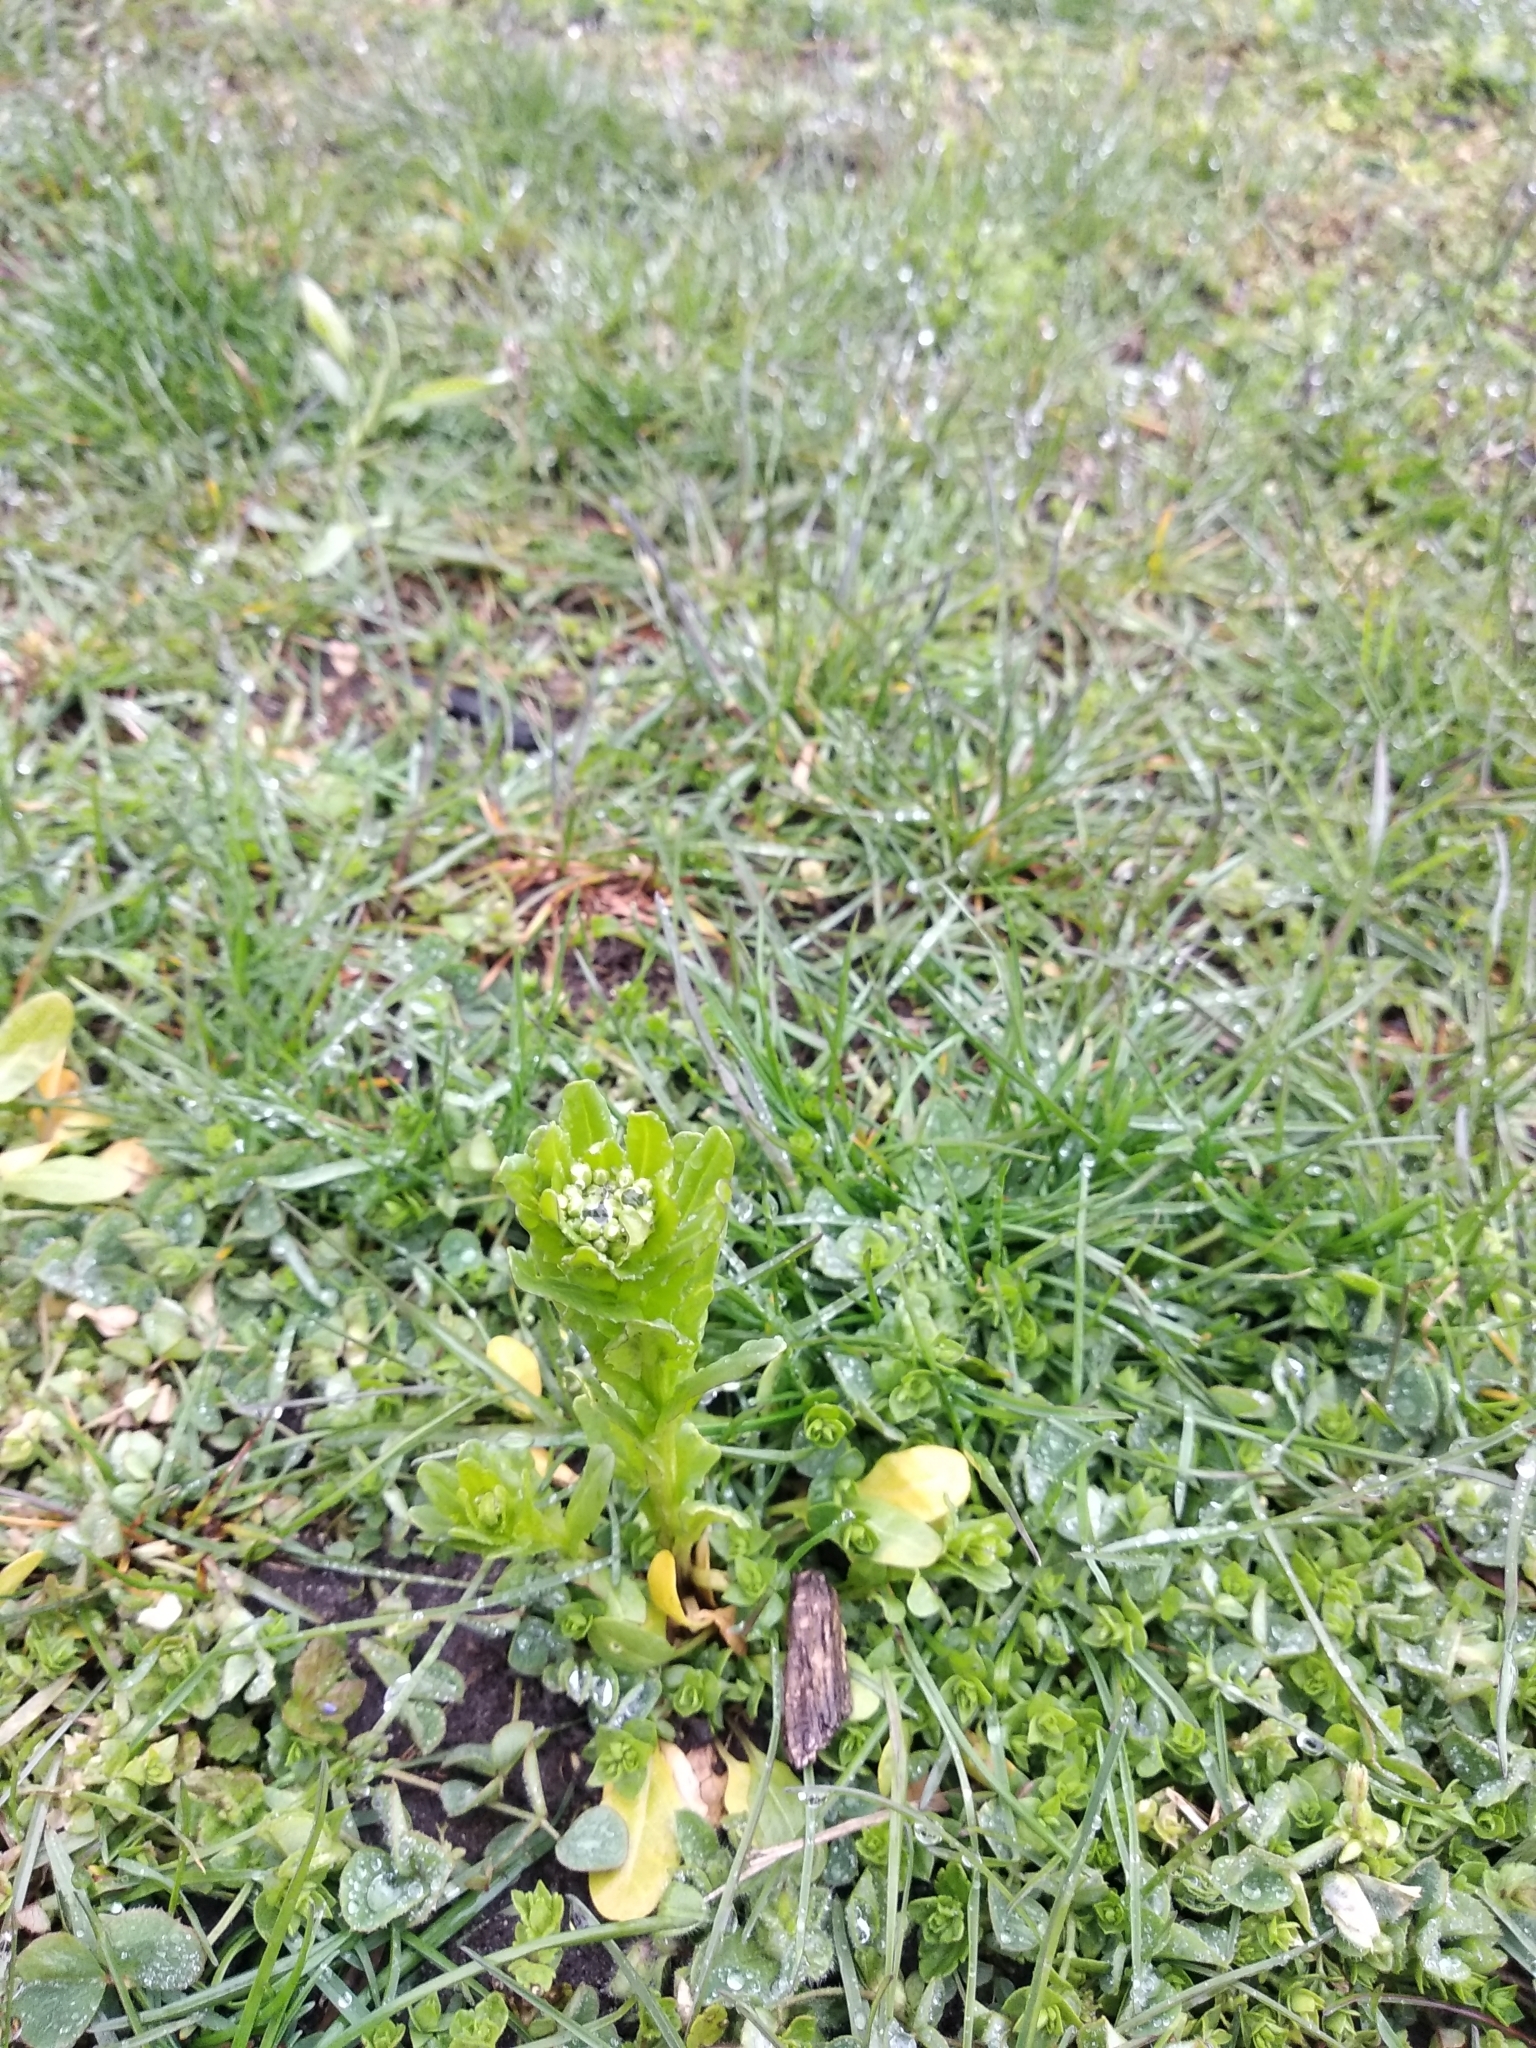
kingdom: Plantae
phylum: Tracheophyta
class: Magnoliopsida
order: Brassicales
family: Brassicaceae
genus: Thlaspi
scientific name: Thlaspi arvense
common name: Field pennycress
